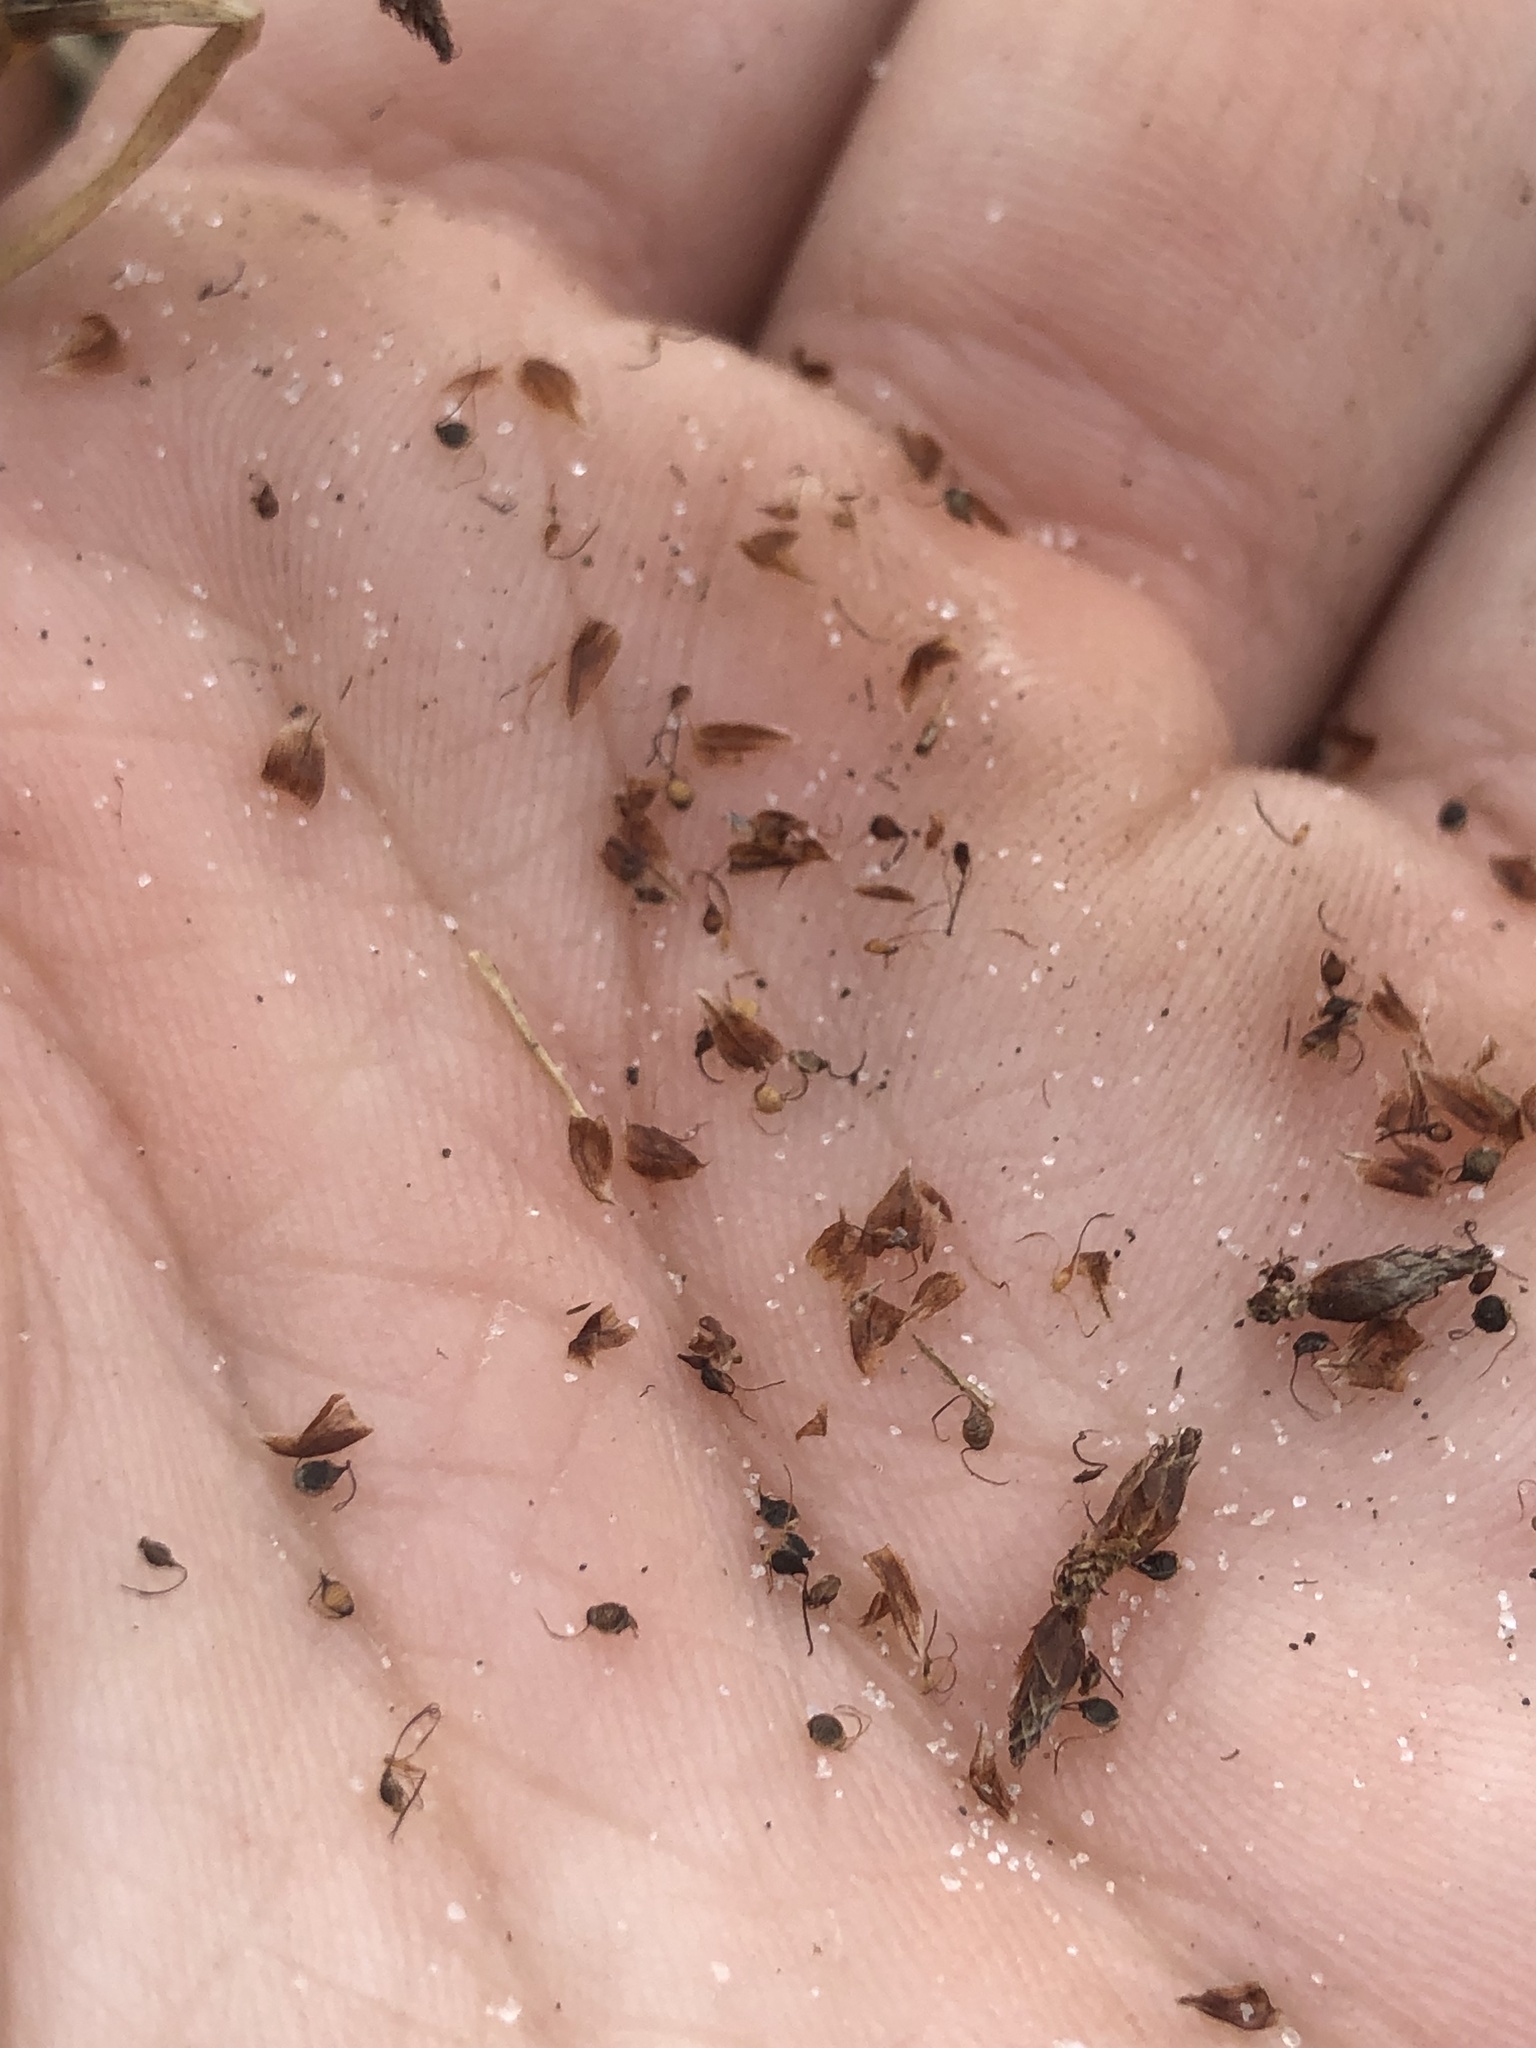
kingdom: Plantae
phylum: Tracheophyta
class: Liliopsida
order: Poales
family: Cyperaceae
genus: Rhynchospora
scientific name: Rhynchospora pleiantha
